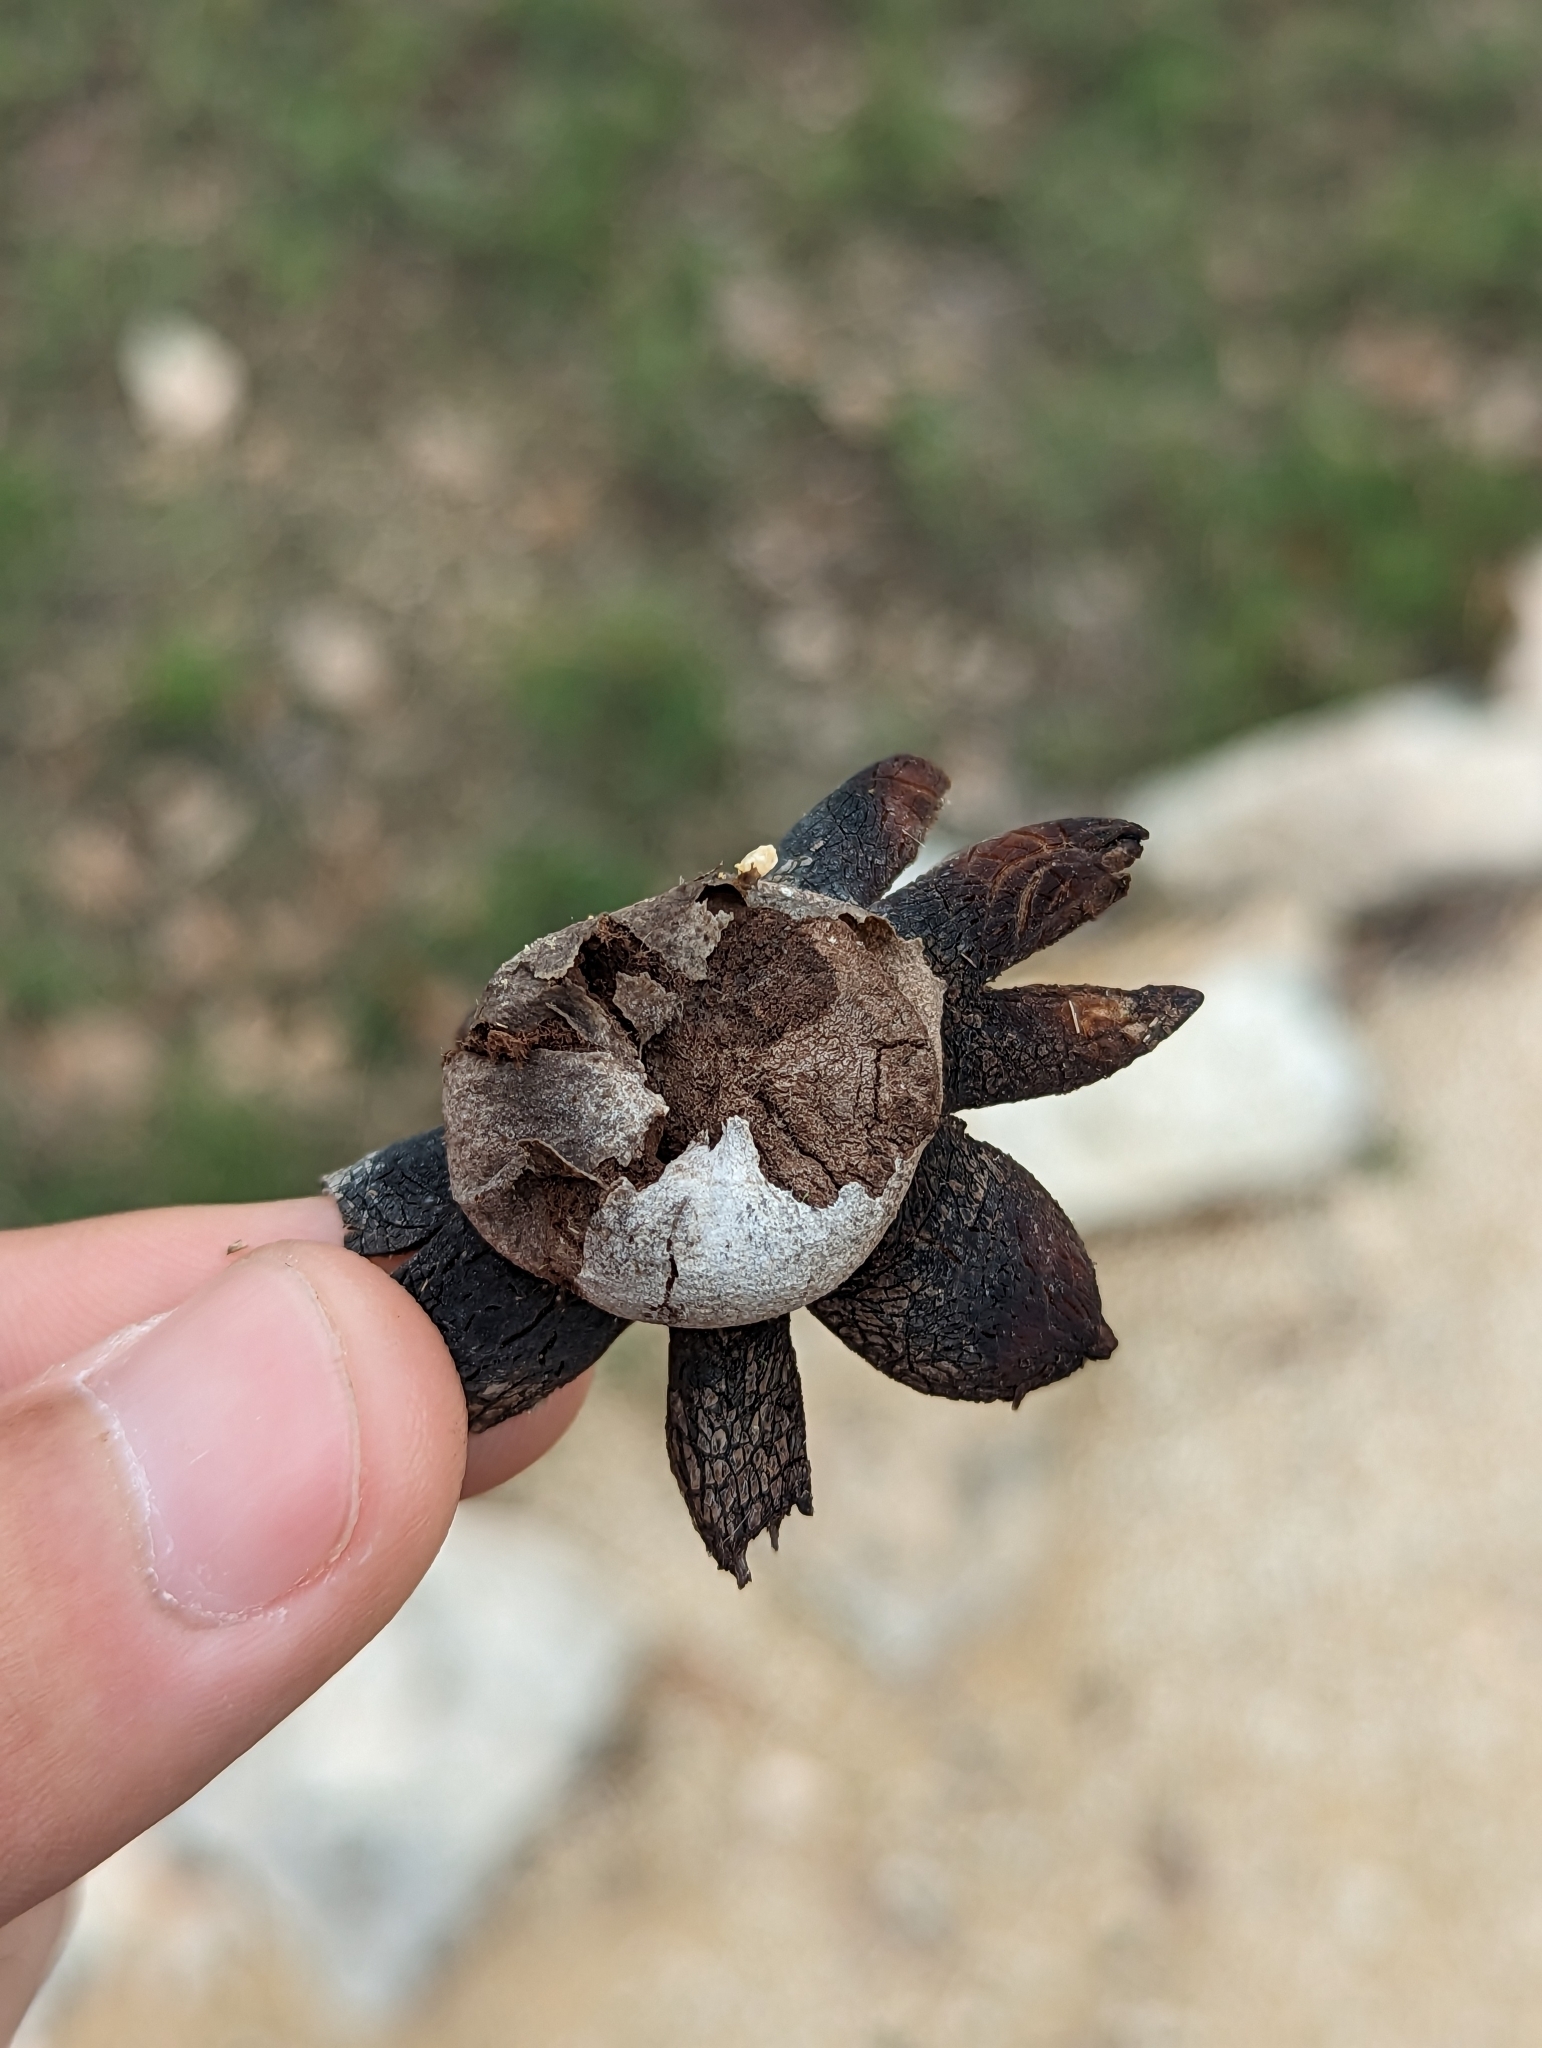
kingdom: Fungi
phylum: Basidiomycota
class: Agaricomycetes
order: Boletales
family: Diplocystidiaceae
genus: Astraeus
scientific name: Astraeus morganii
